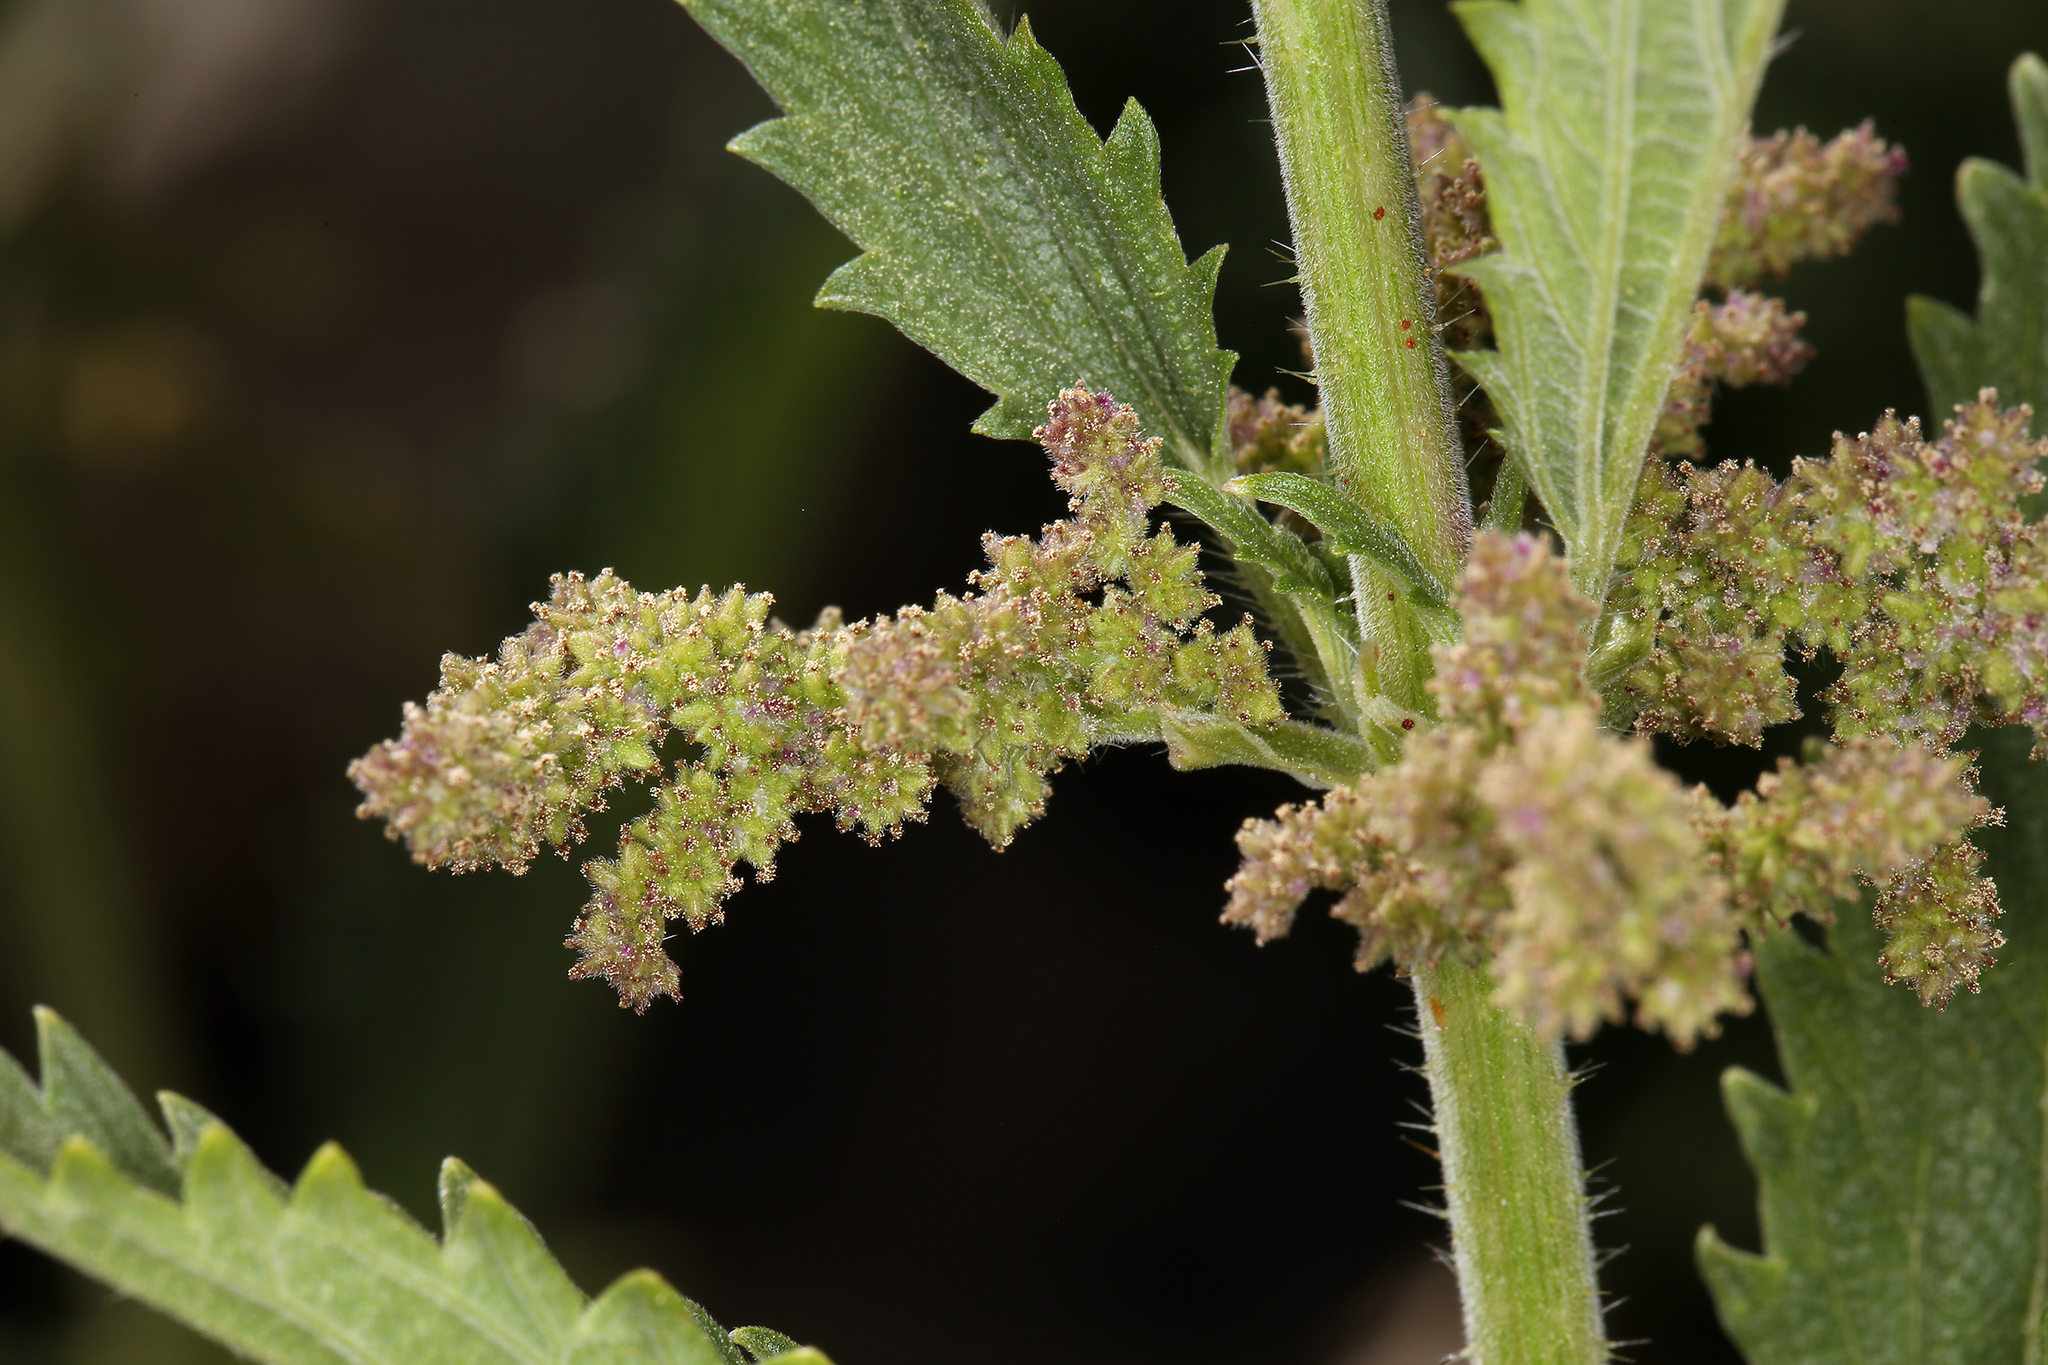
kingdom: Plantae
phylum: Tracheophyta
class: Magnoliopsida
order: Rosales
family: Urticaceae
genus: Urtica
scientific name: Urtica gracilis
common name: Slender stinging nettle
